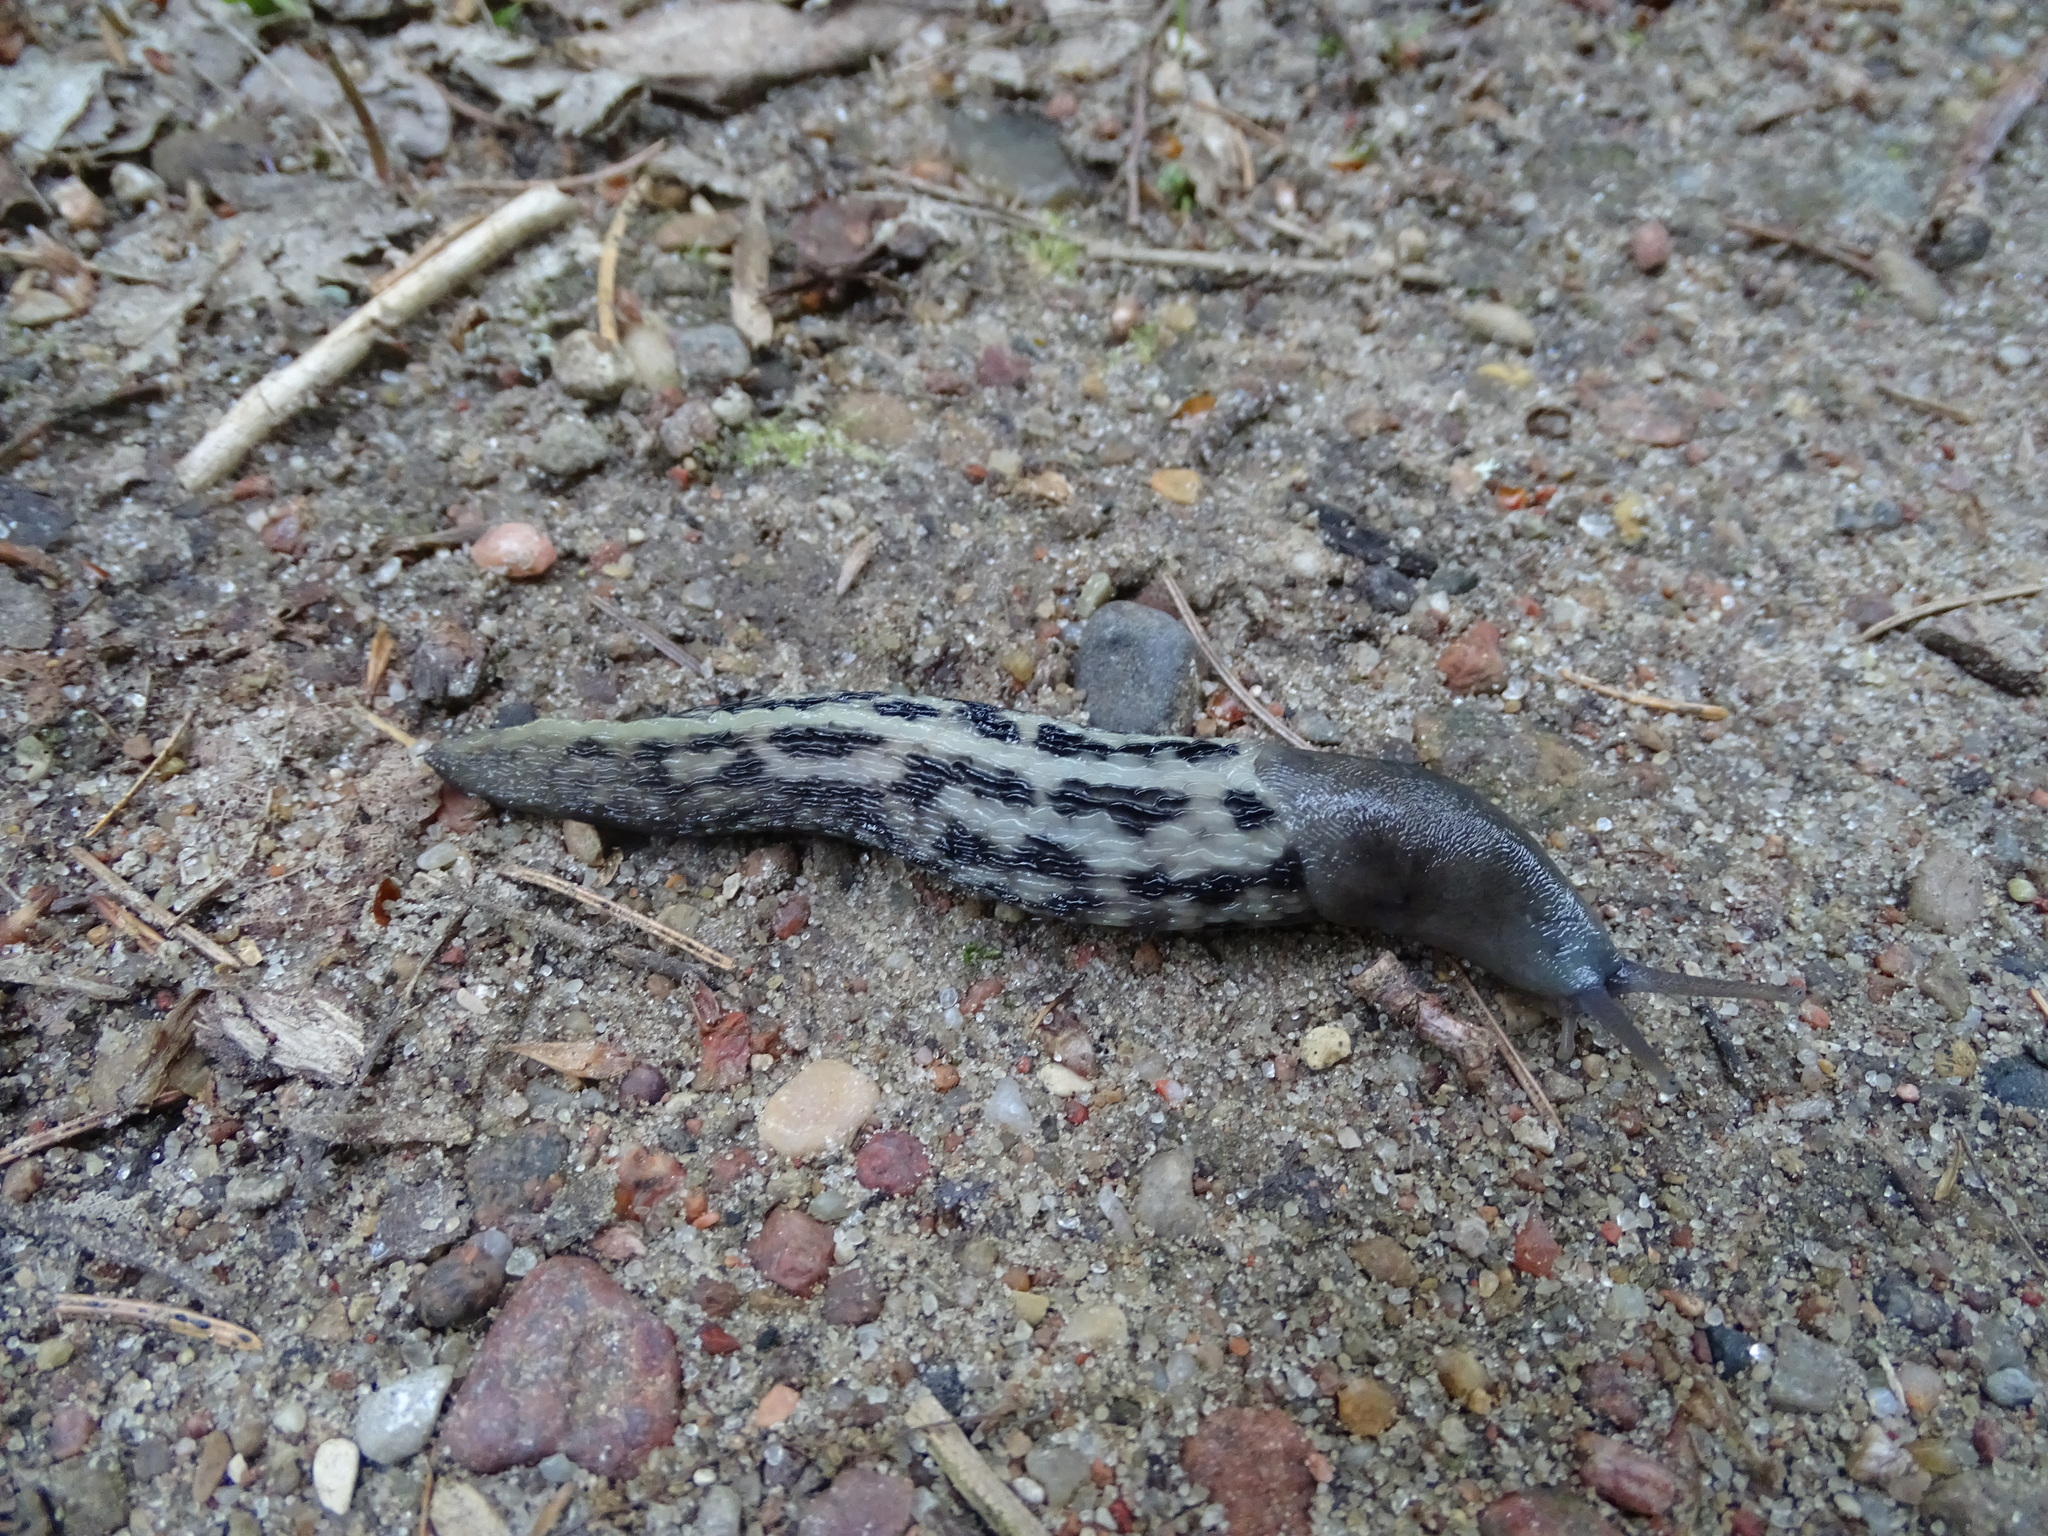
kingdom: Animalia
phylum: Mollusca
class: Gastropoda
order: Stylommatophora
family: Limacidae
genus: Limax
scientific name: Limax cinereoniger
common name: Ash-black slug
